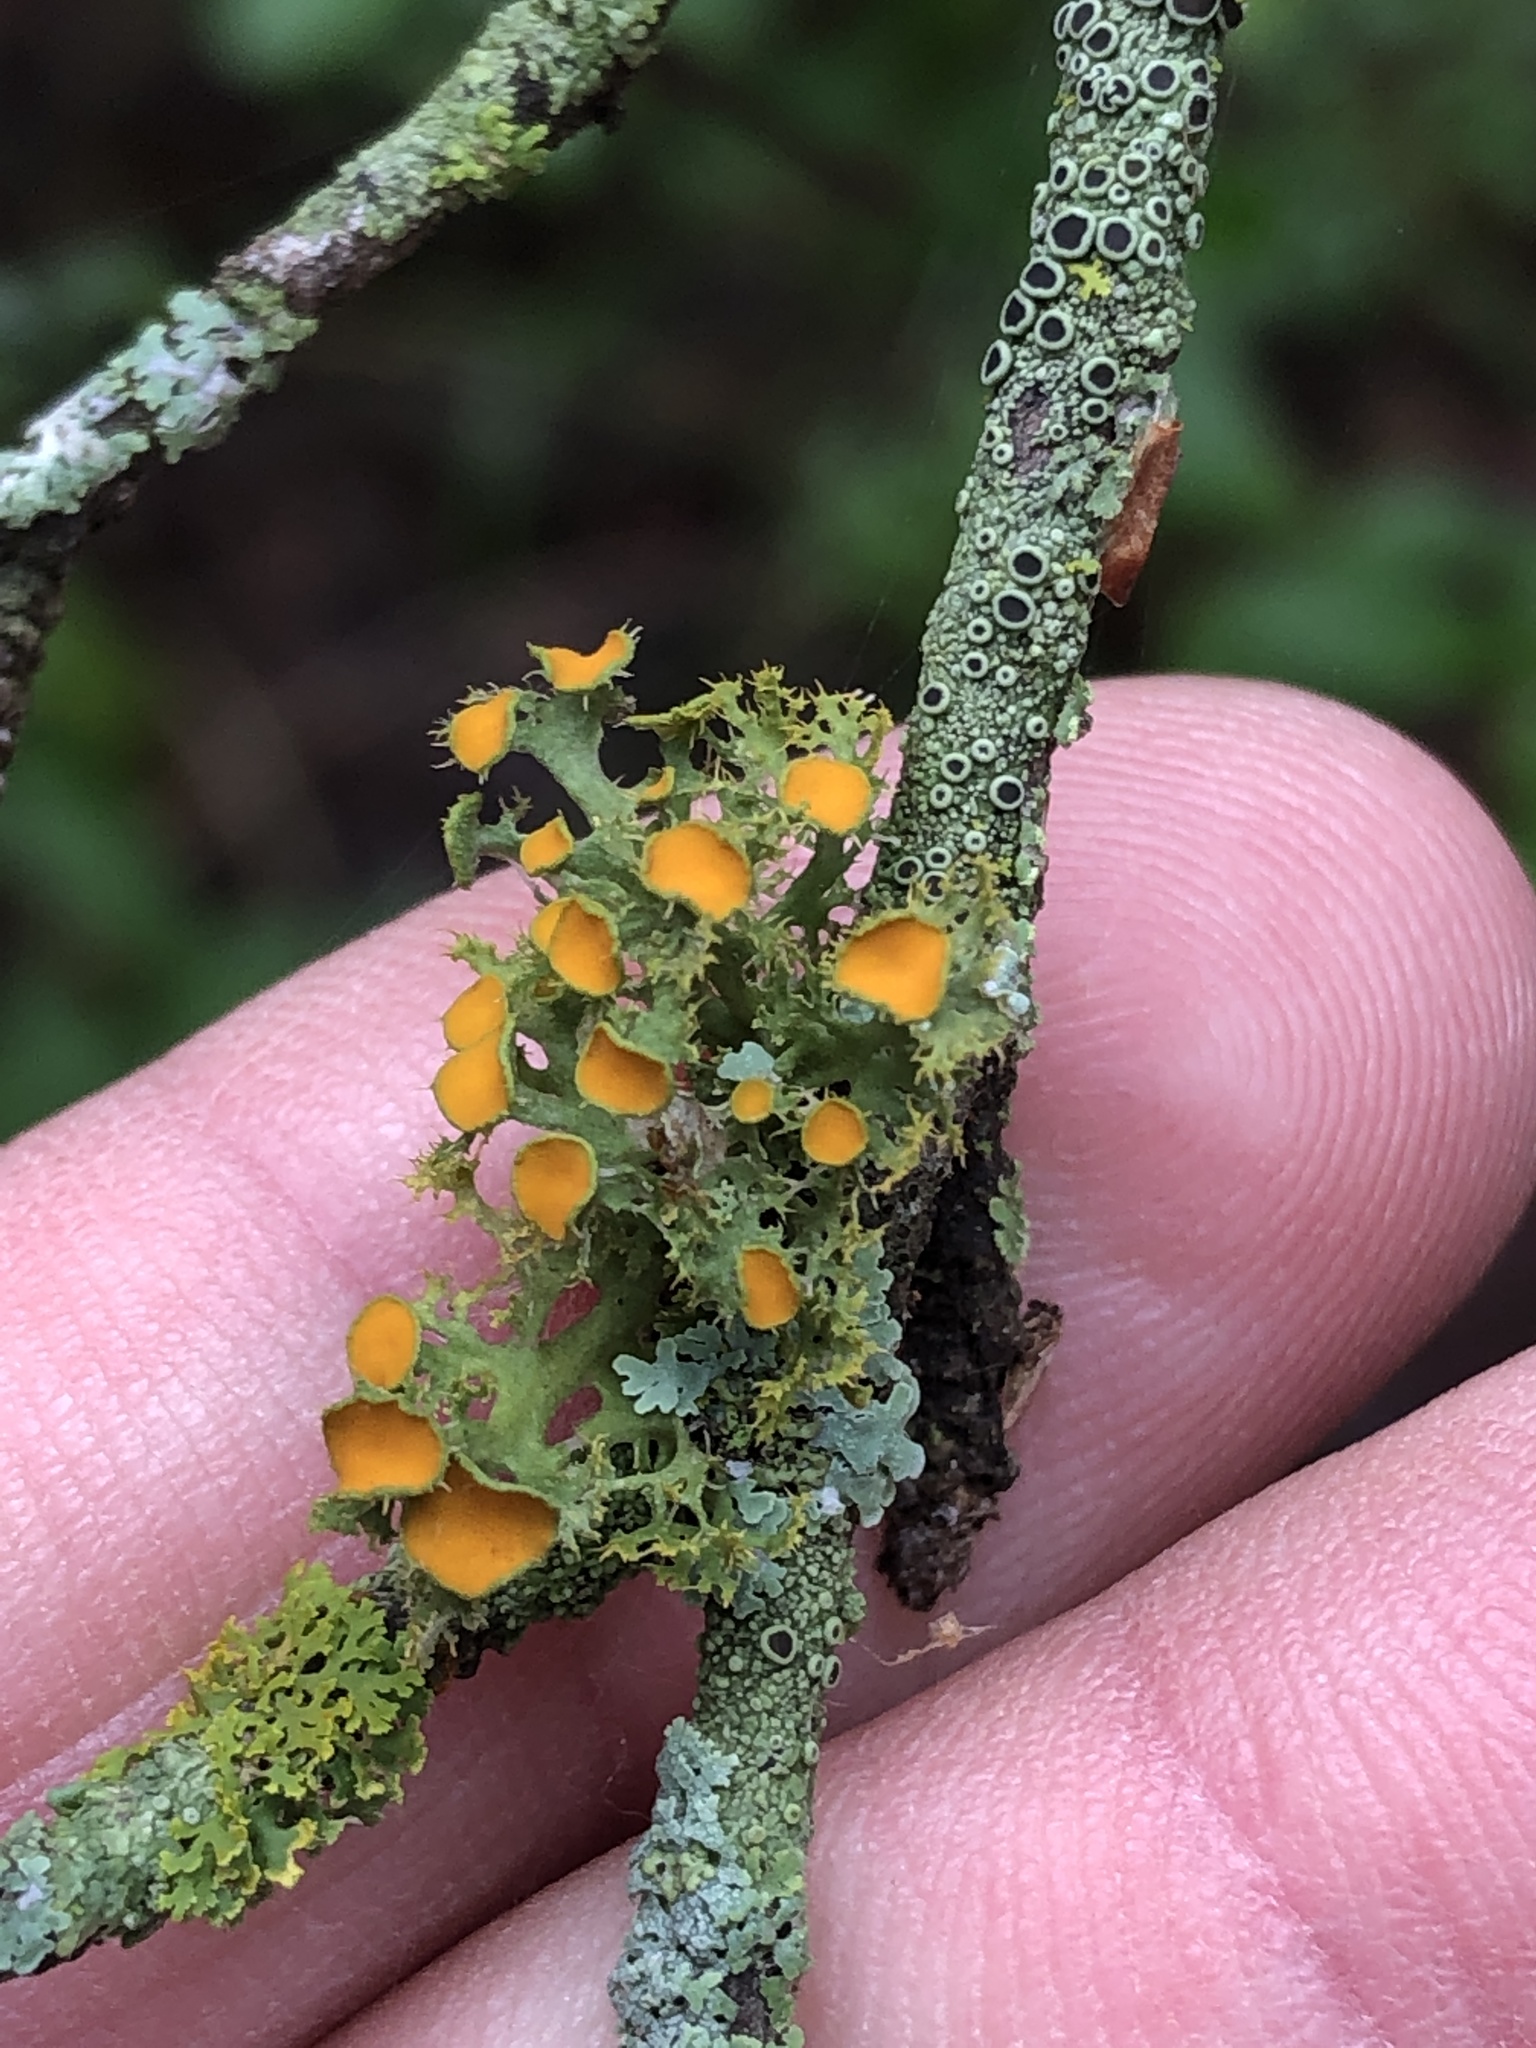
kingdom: Fungi
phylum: Ascomycota
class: Lecanoromycetes
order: Teloschistales
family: Teloschistaceae
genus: Niorma
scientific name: Niorma chrysophthalma
